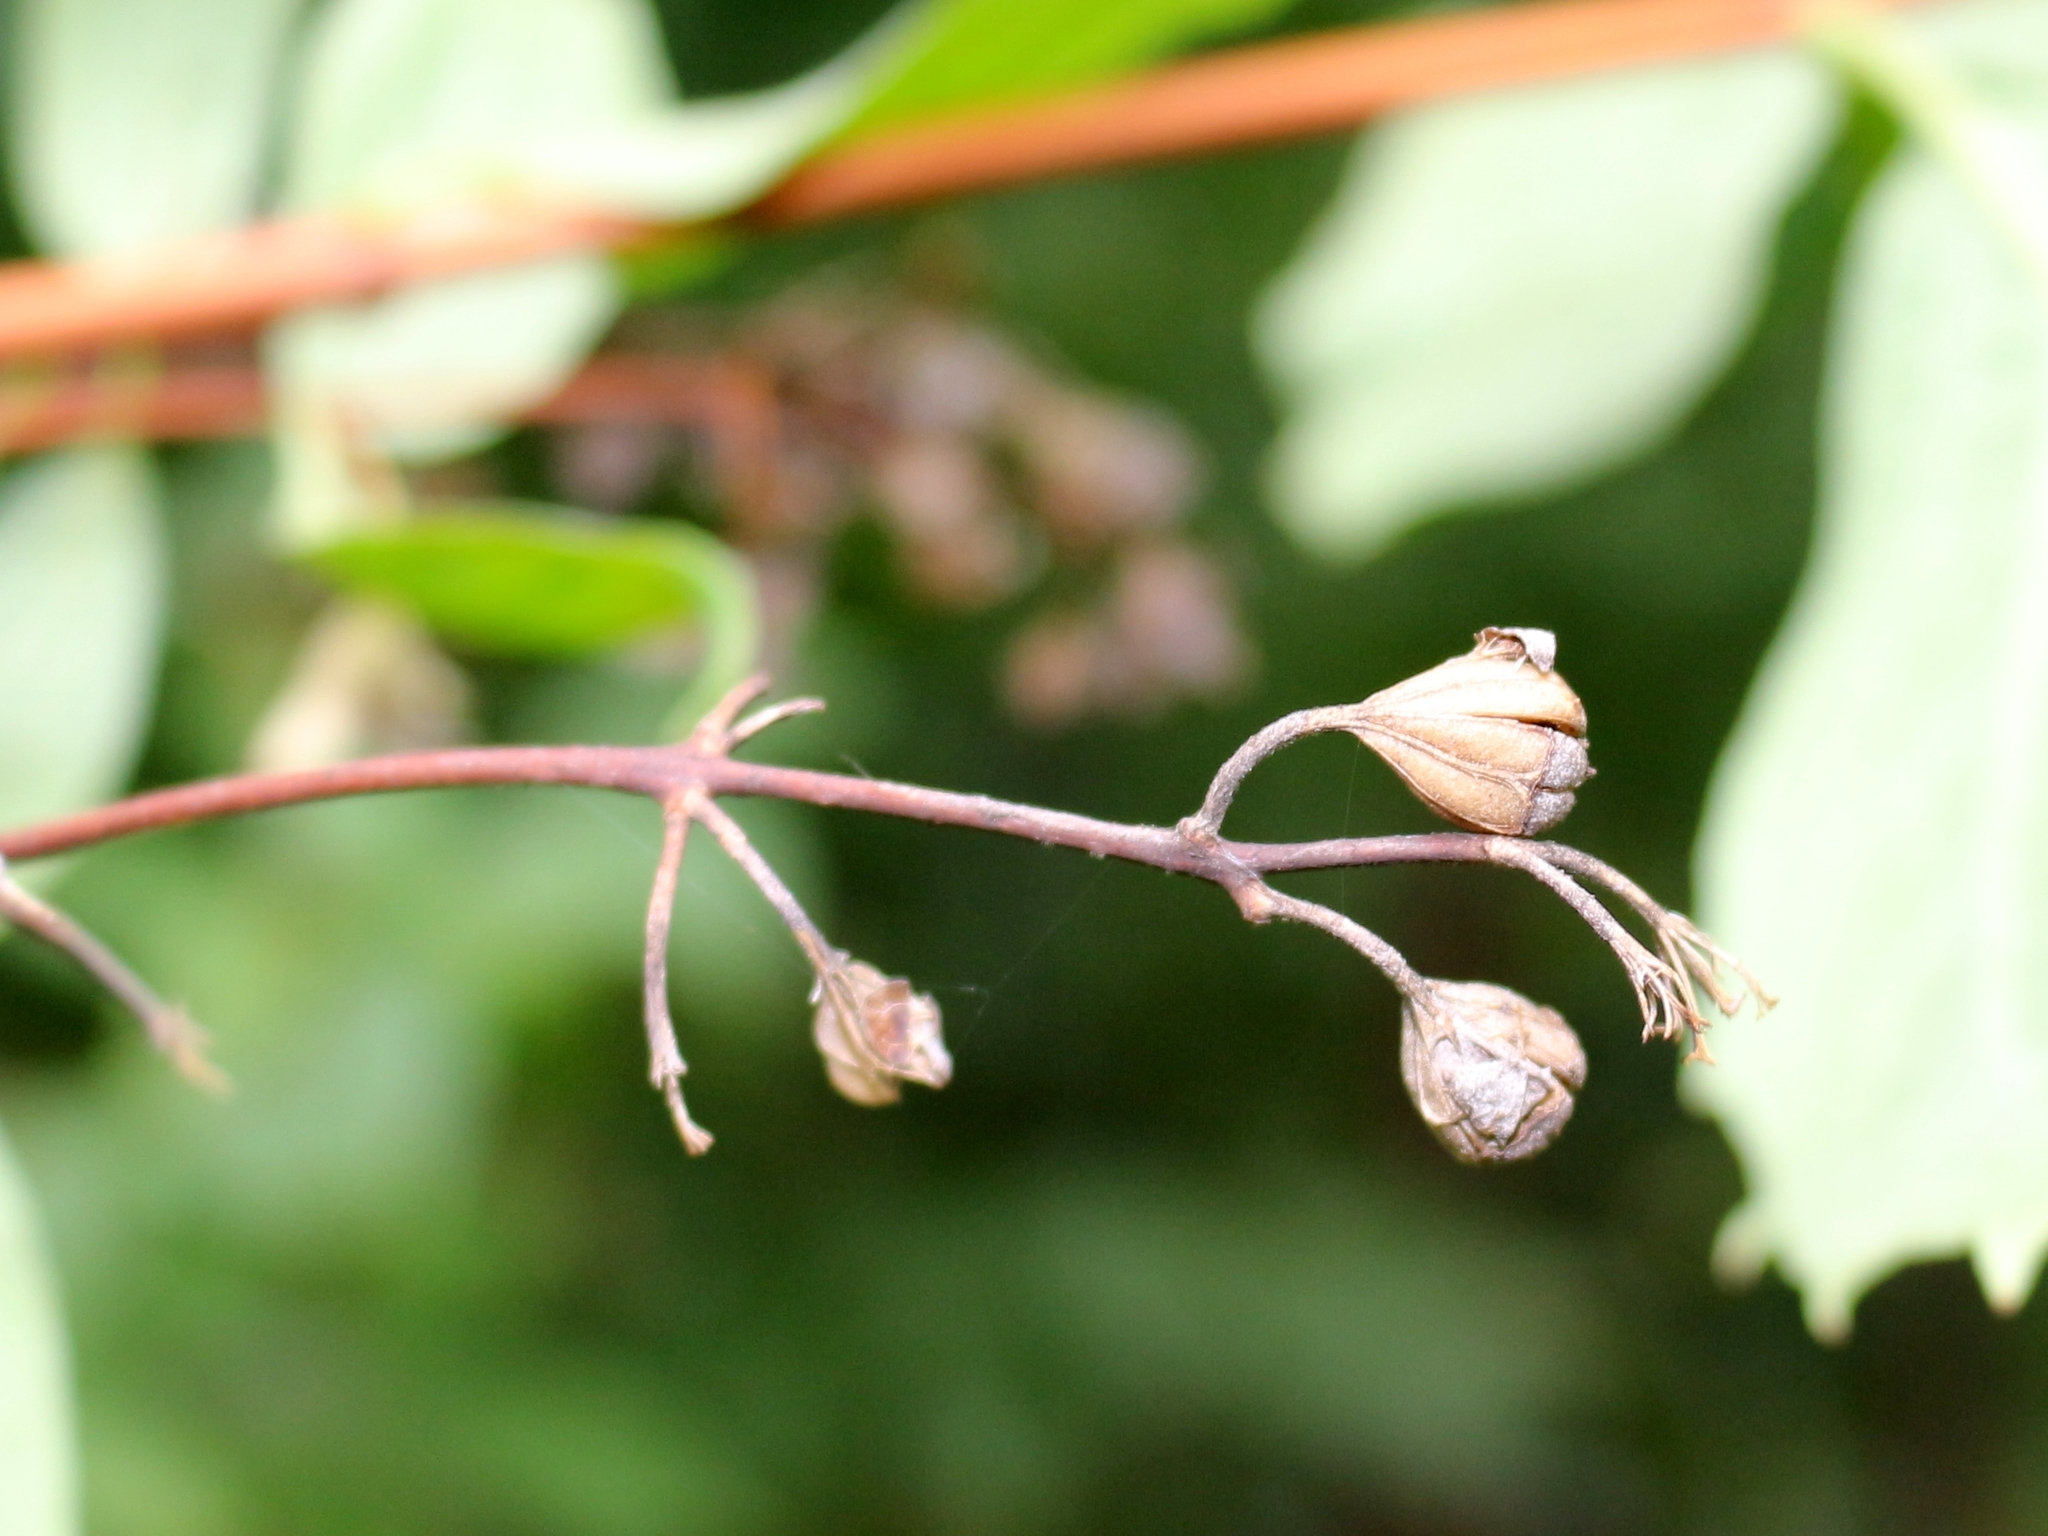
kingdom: Plantae
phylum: Tracheophyta
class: Magnoliopsida
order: Cornales
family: Hydrangeaceae
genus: Philadelphus
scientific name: Philadelphus coronarius
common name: Mock orange
